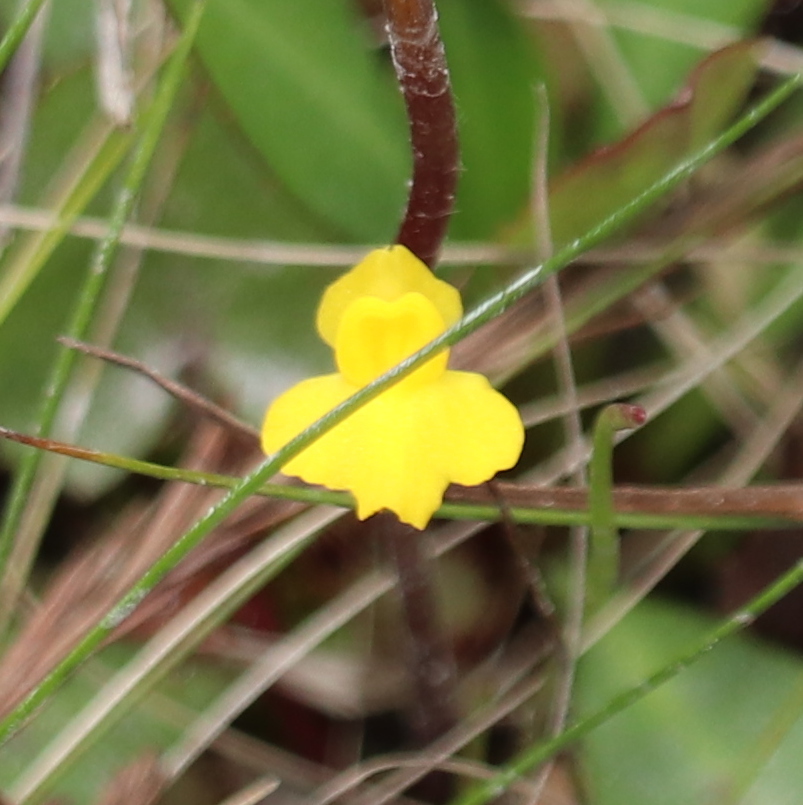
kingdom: Plantae
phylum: Tracheophyta
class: Magnoliopsida
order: Lamiales
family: Lentibulariaceae
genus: Utricularia
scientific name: Utricularia subulata
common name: Tiny bladderwort
